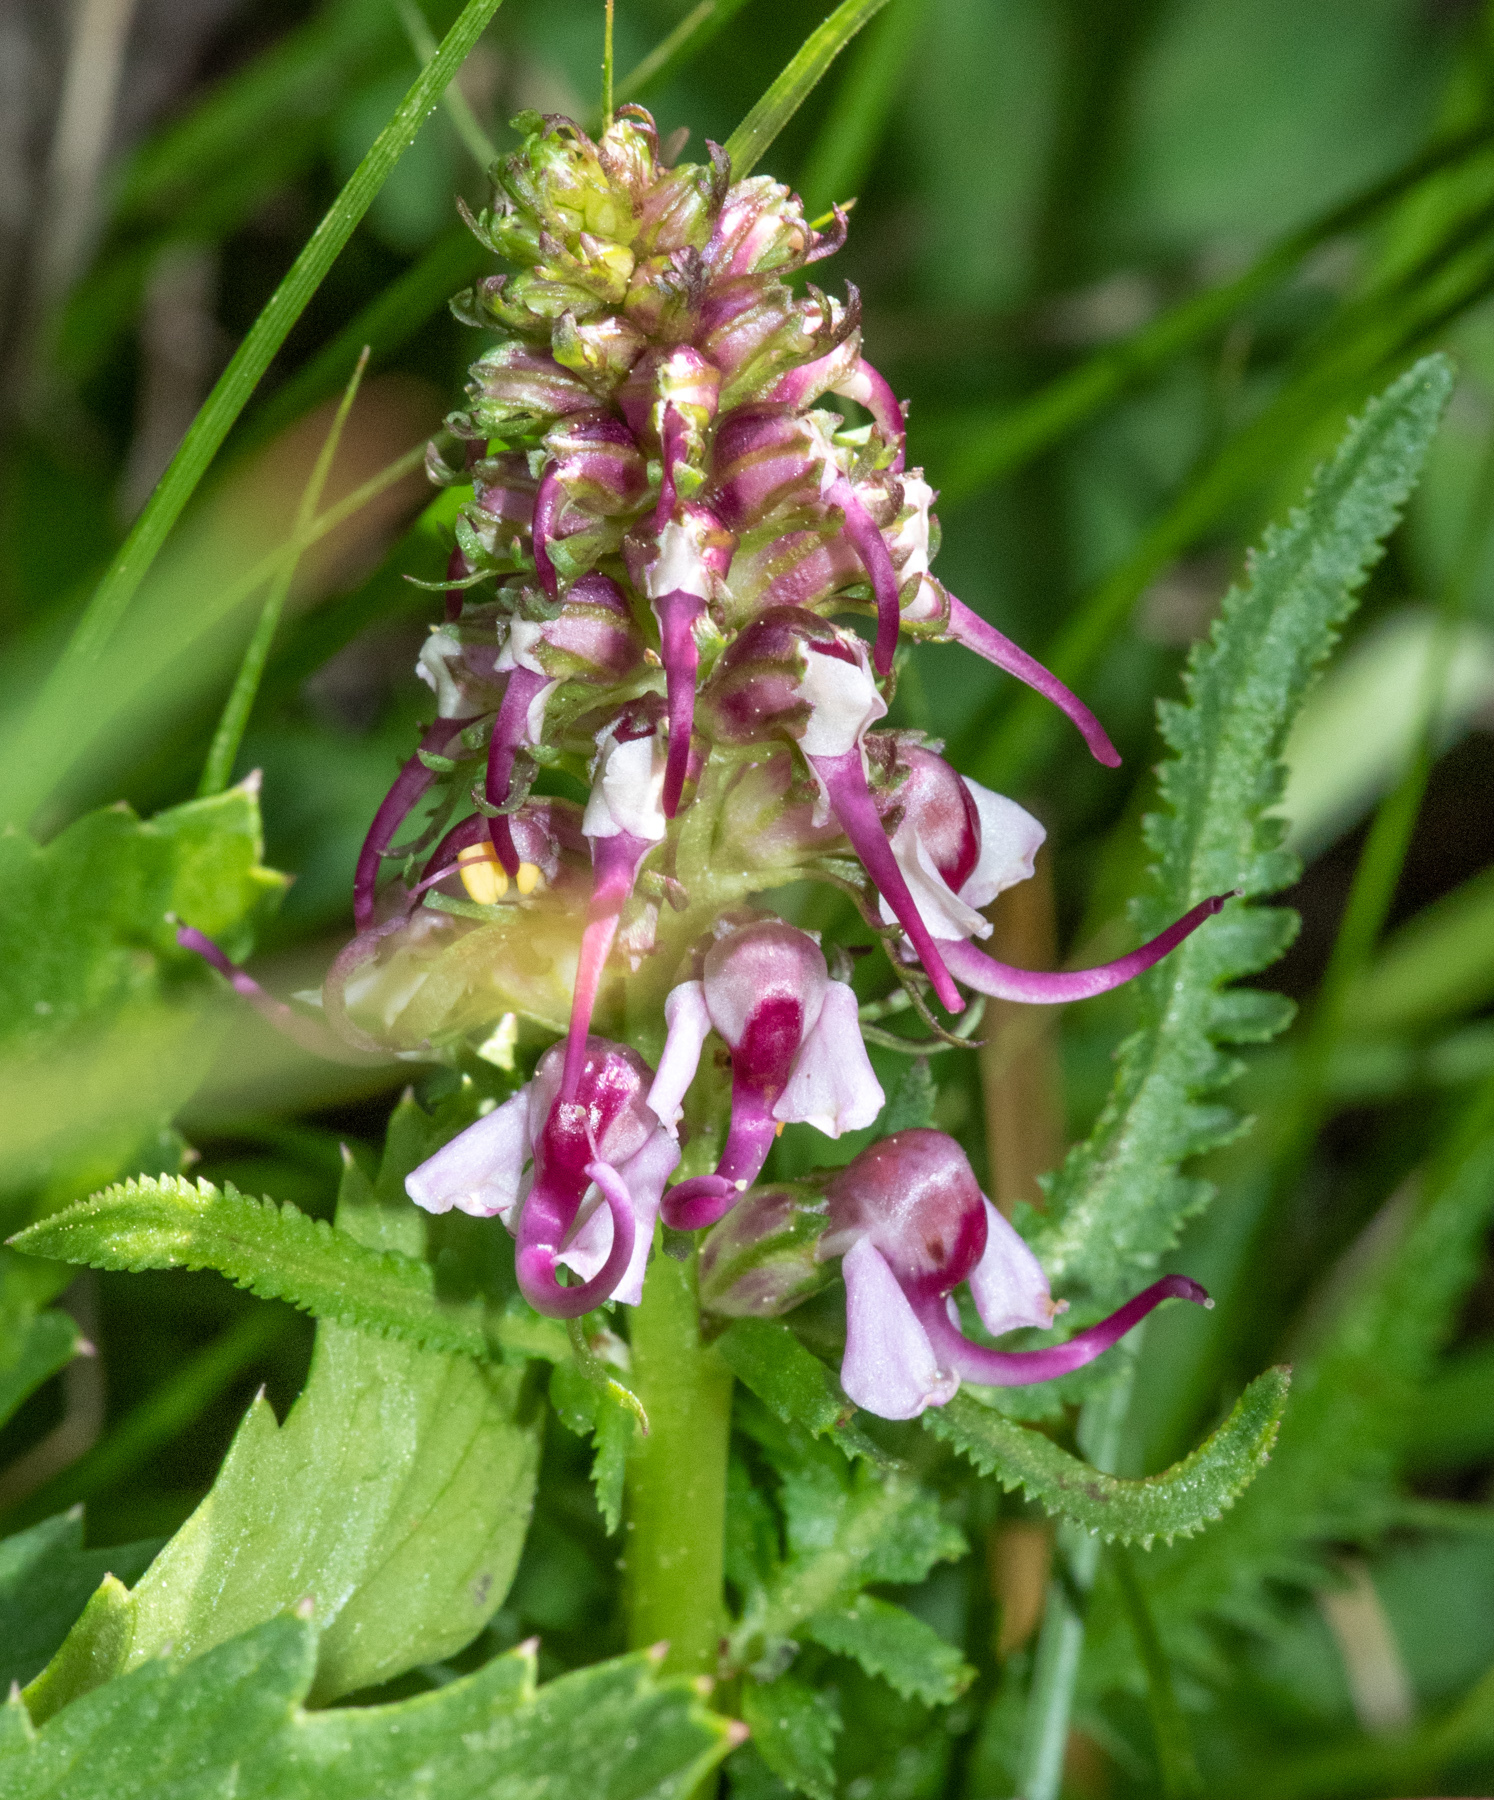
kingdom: Plantae
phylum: Tracheophyta
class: Magnoliopsida
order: Lamiales
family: Orobanchaceae
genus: Pedicularis
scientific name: Pedicularis groenlandica
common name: Elephant's-head
